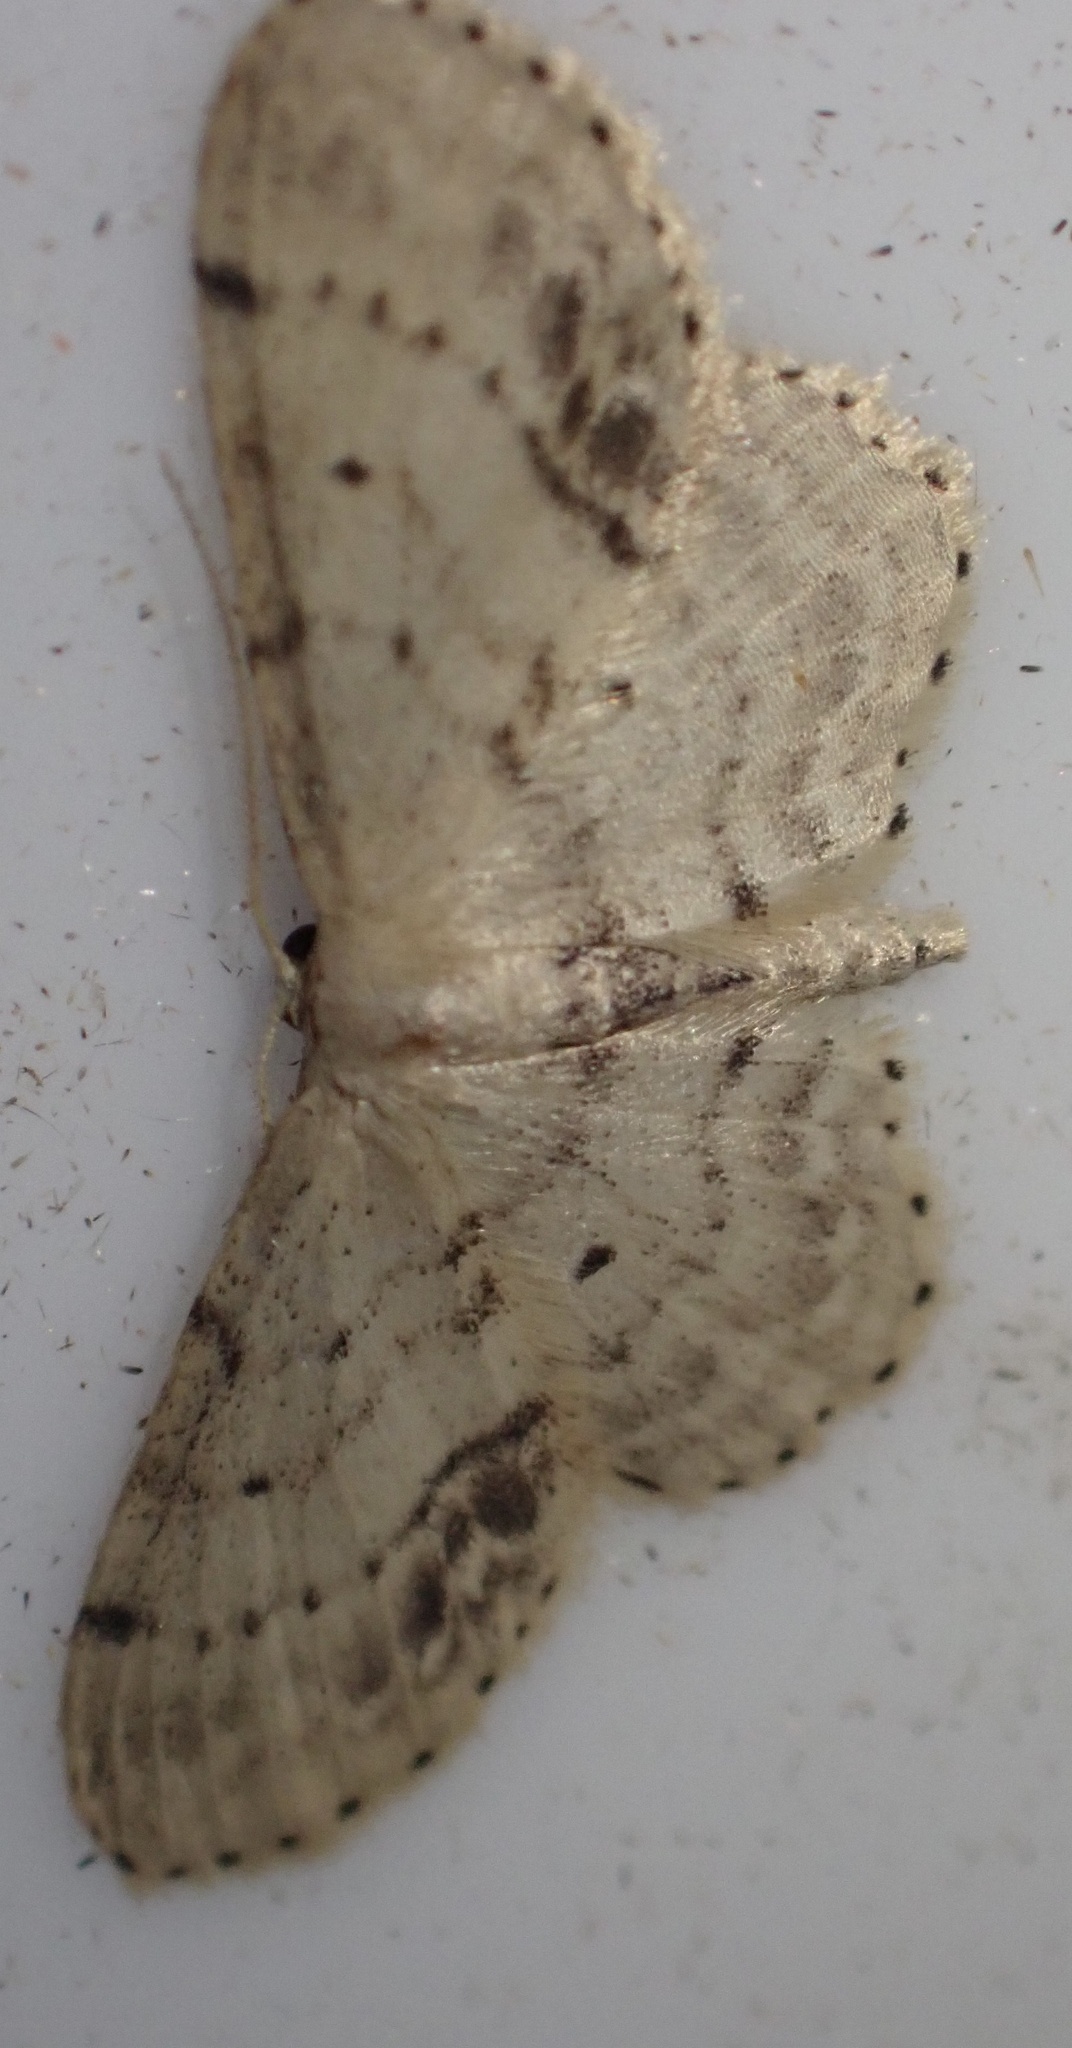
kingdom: Animalia
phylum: Arthropoda
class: Insecta
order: Lepidoptera
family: Geometridae
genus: Idaea
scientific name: Idaea dimidiata
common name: Single-dotted wave
